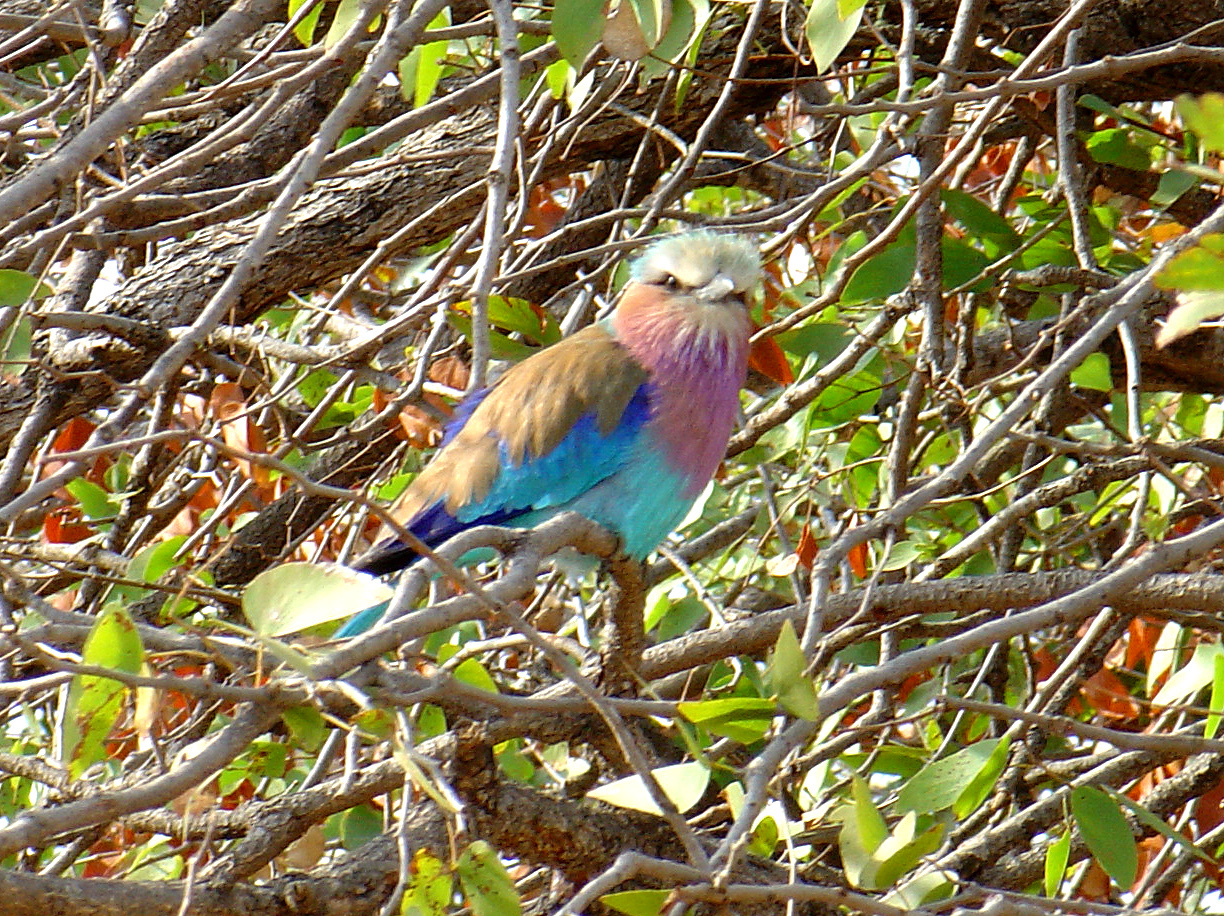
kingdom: Animalia
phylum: Chordata
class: Aves
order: Coraciiformes
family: Coraciidae
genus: Coracias
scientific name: Coracias caudatus
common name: Lilac-breasted roller
